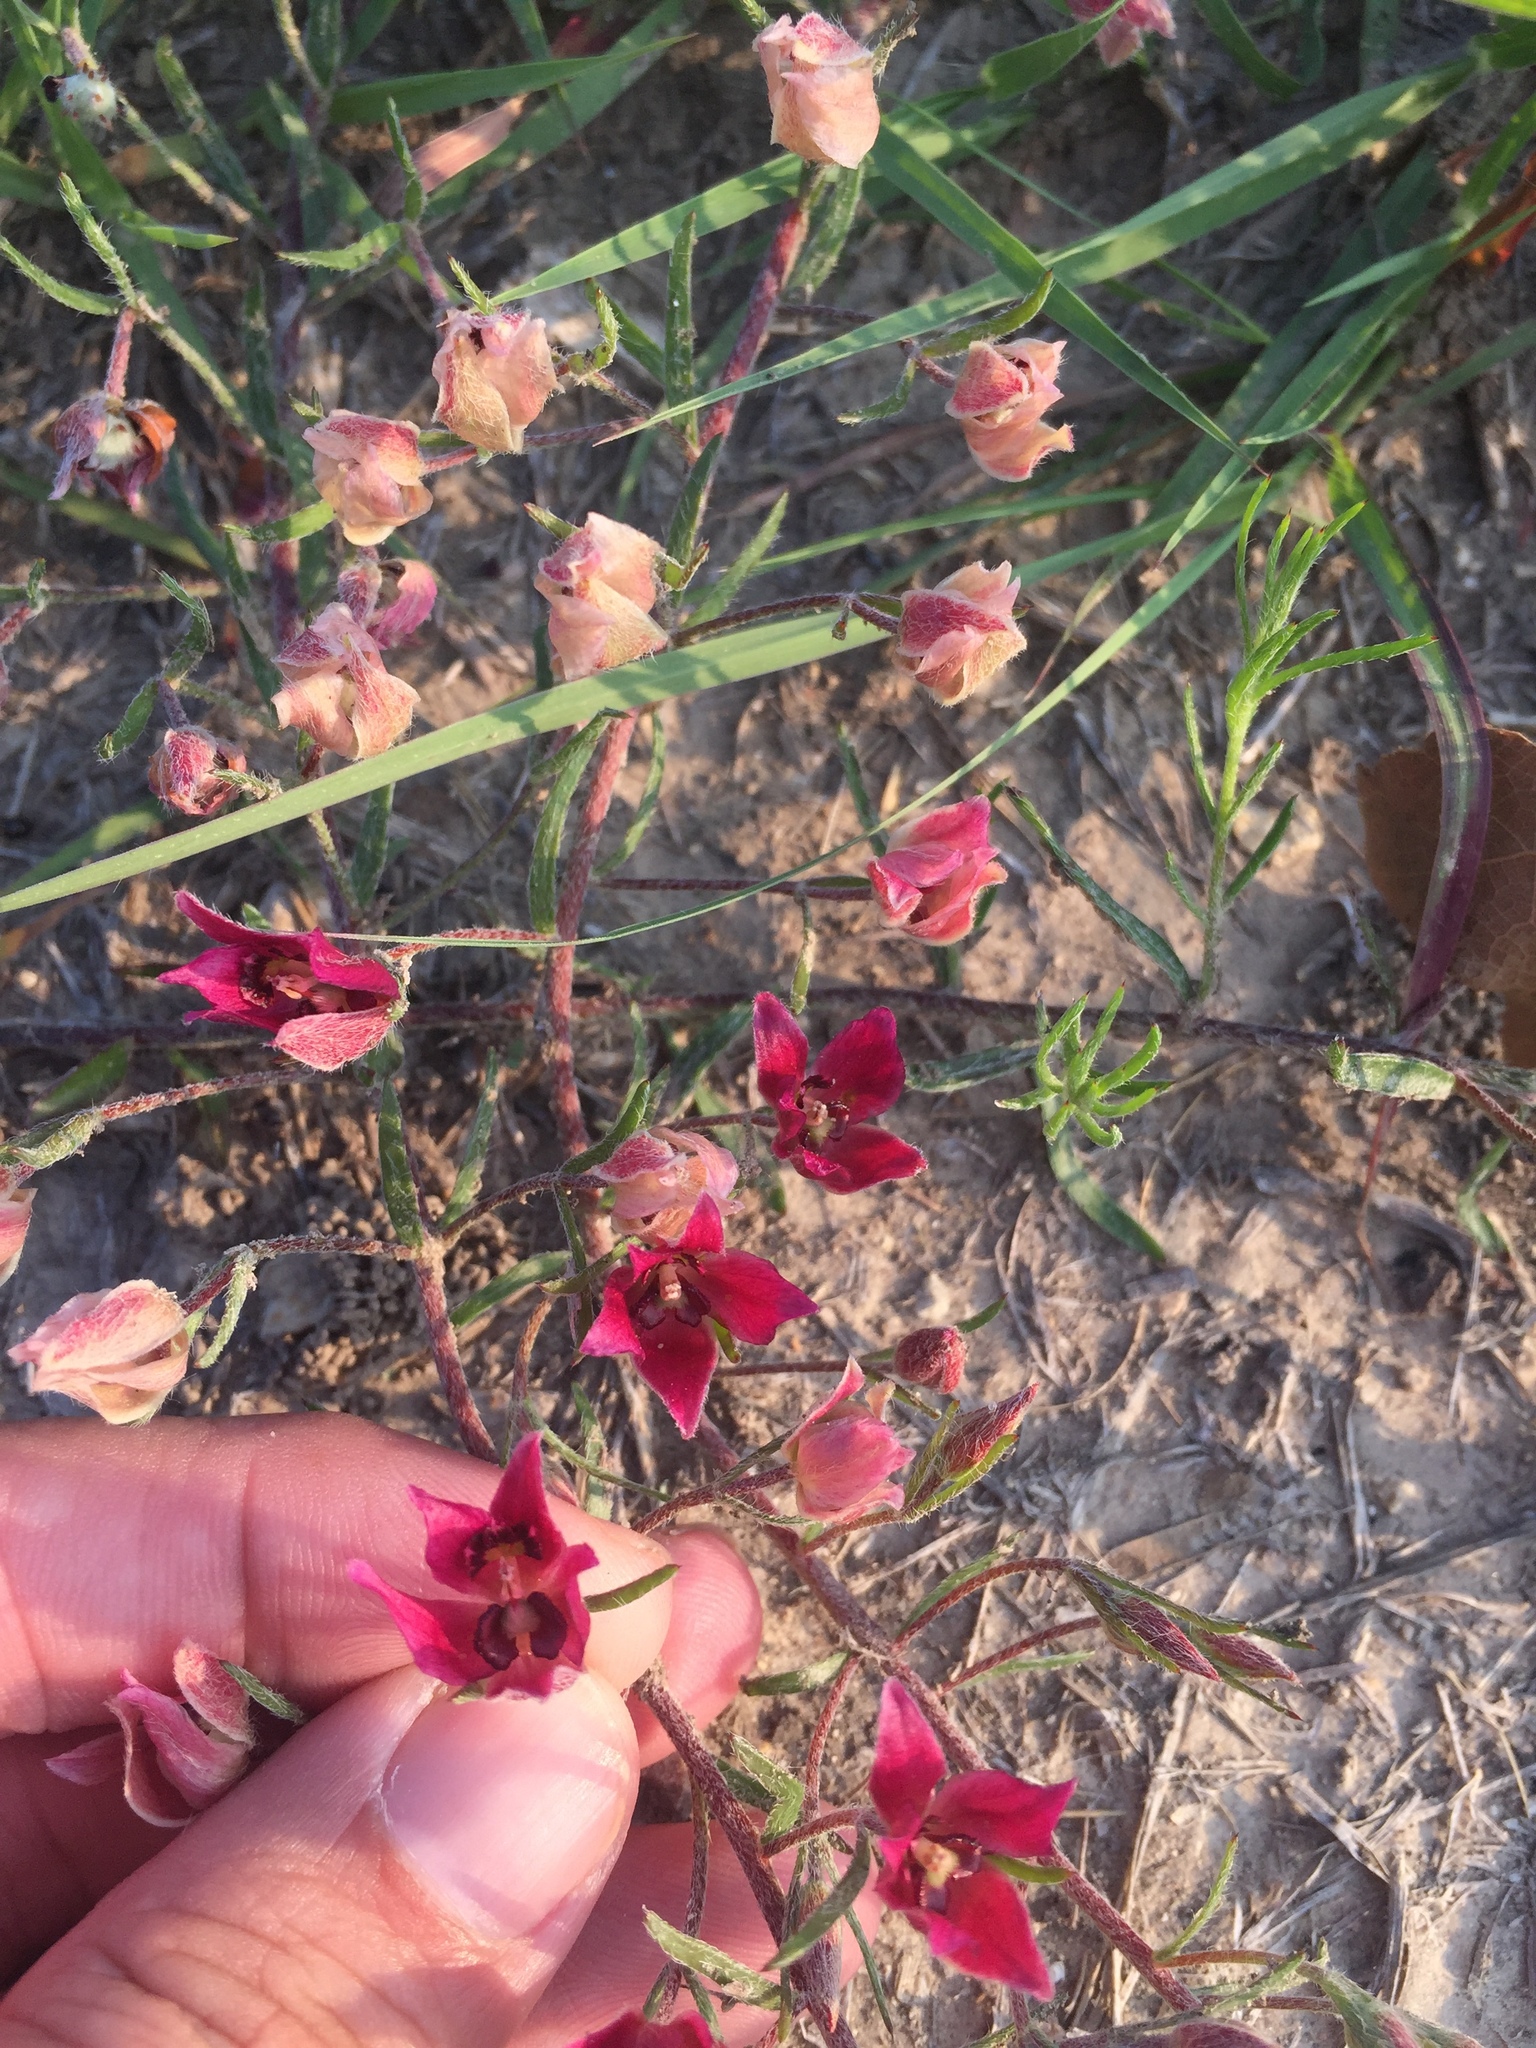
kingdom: Plantae
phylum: Tracheophyta
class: Magnoliopsida
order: Zygophyllales
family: Krameriaceae
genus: Krameria
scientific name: Krameria lanceolata
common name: Ratany
